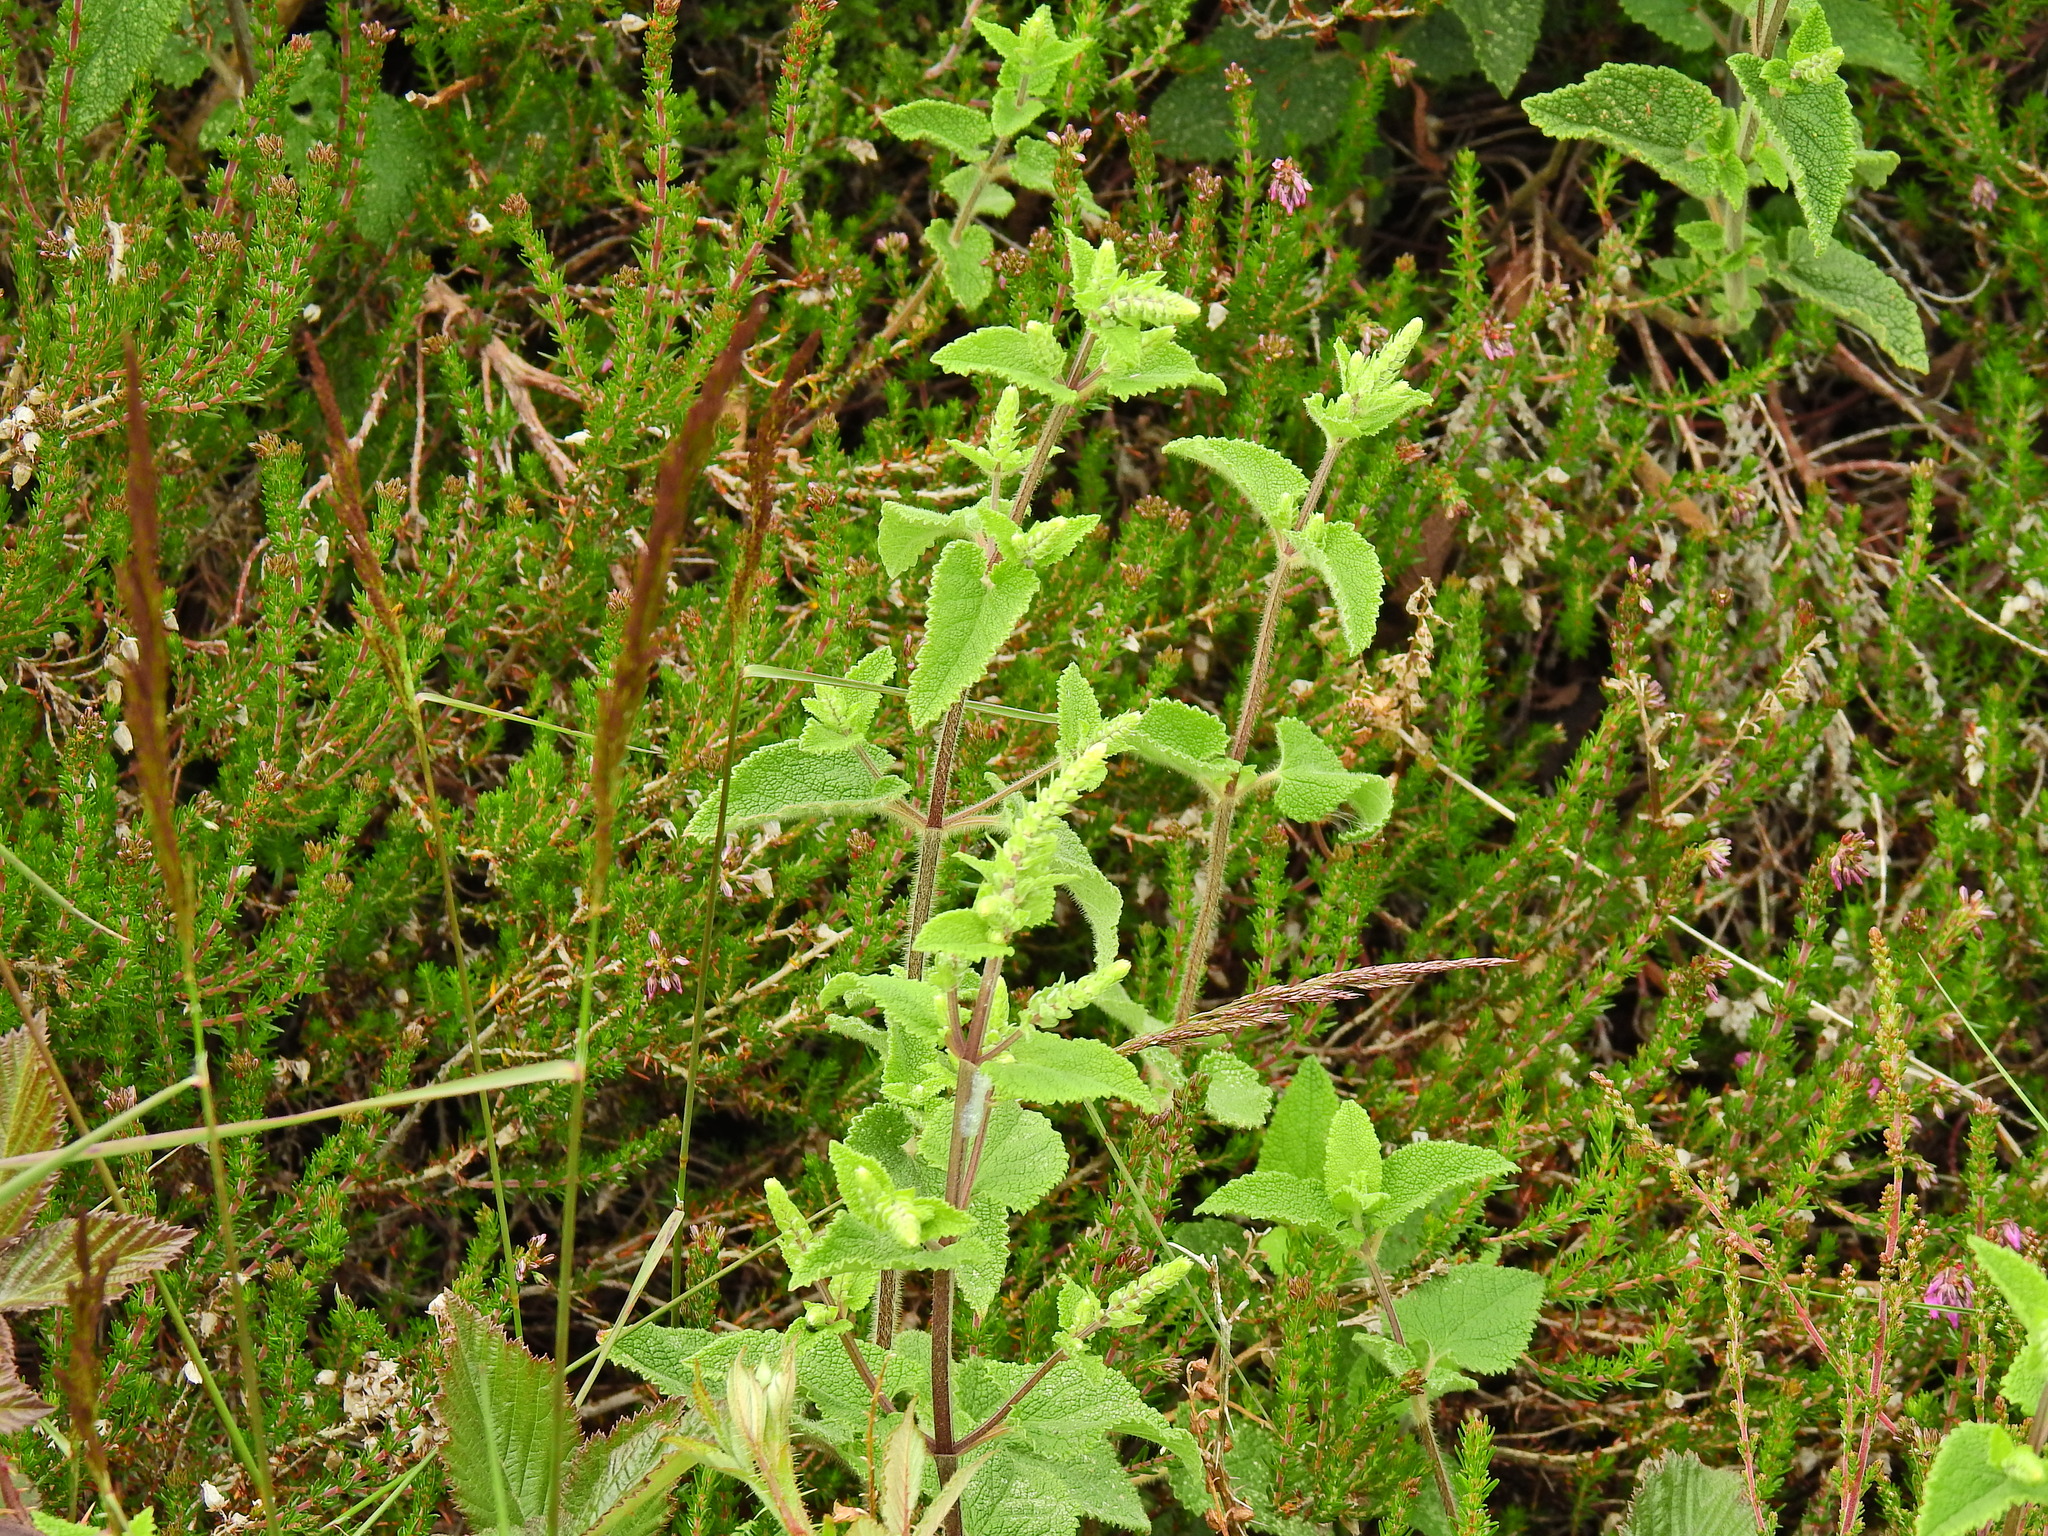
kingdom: Plantae
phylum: Tracheophyta
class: Magnoliopsida
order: Lamiales
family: Lamiaceae
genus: Teucrium
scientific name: Teucrium scorodonia
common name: Woodland germander
